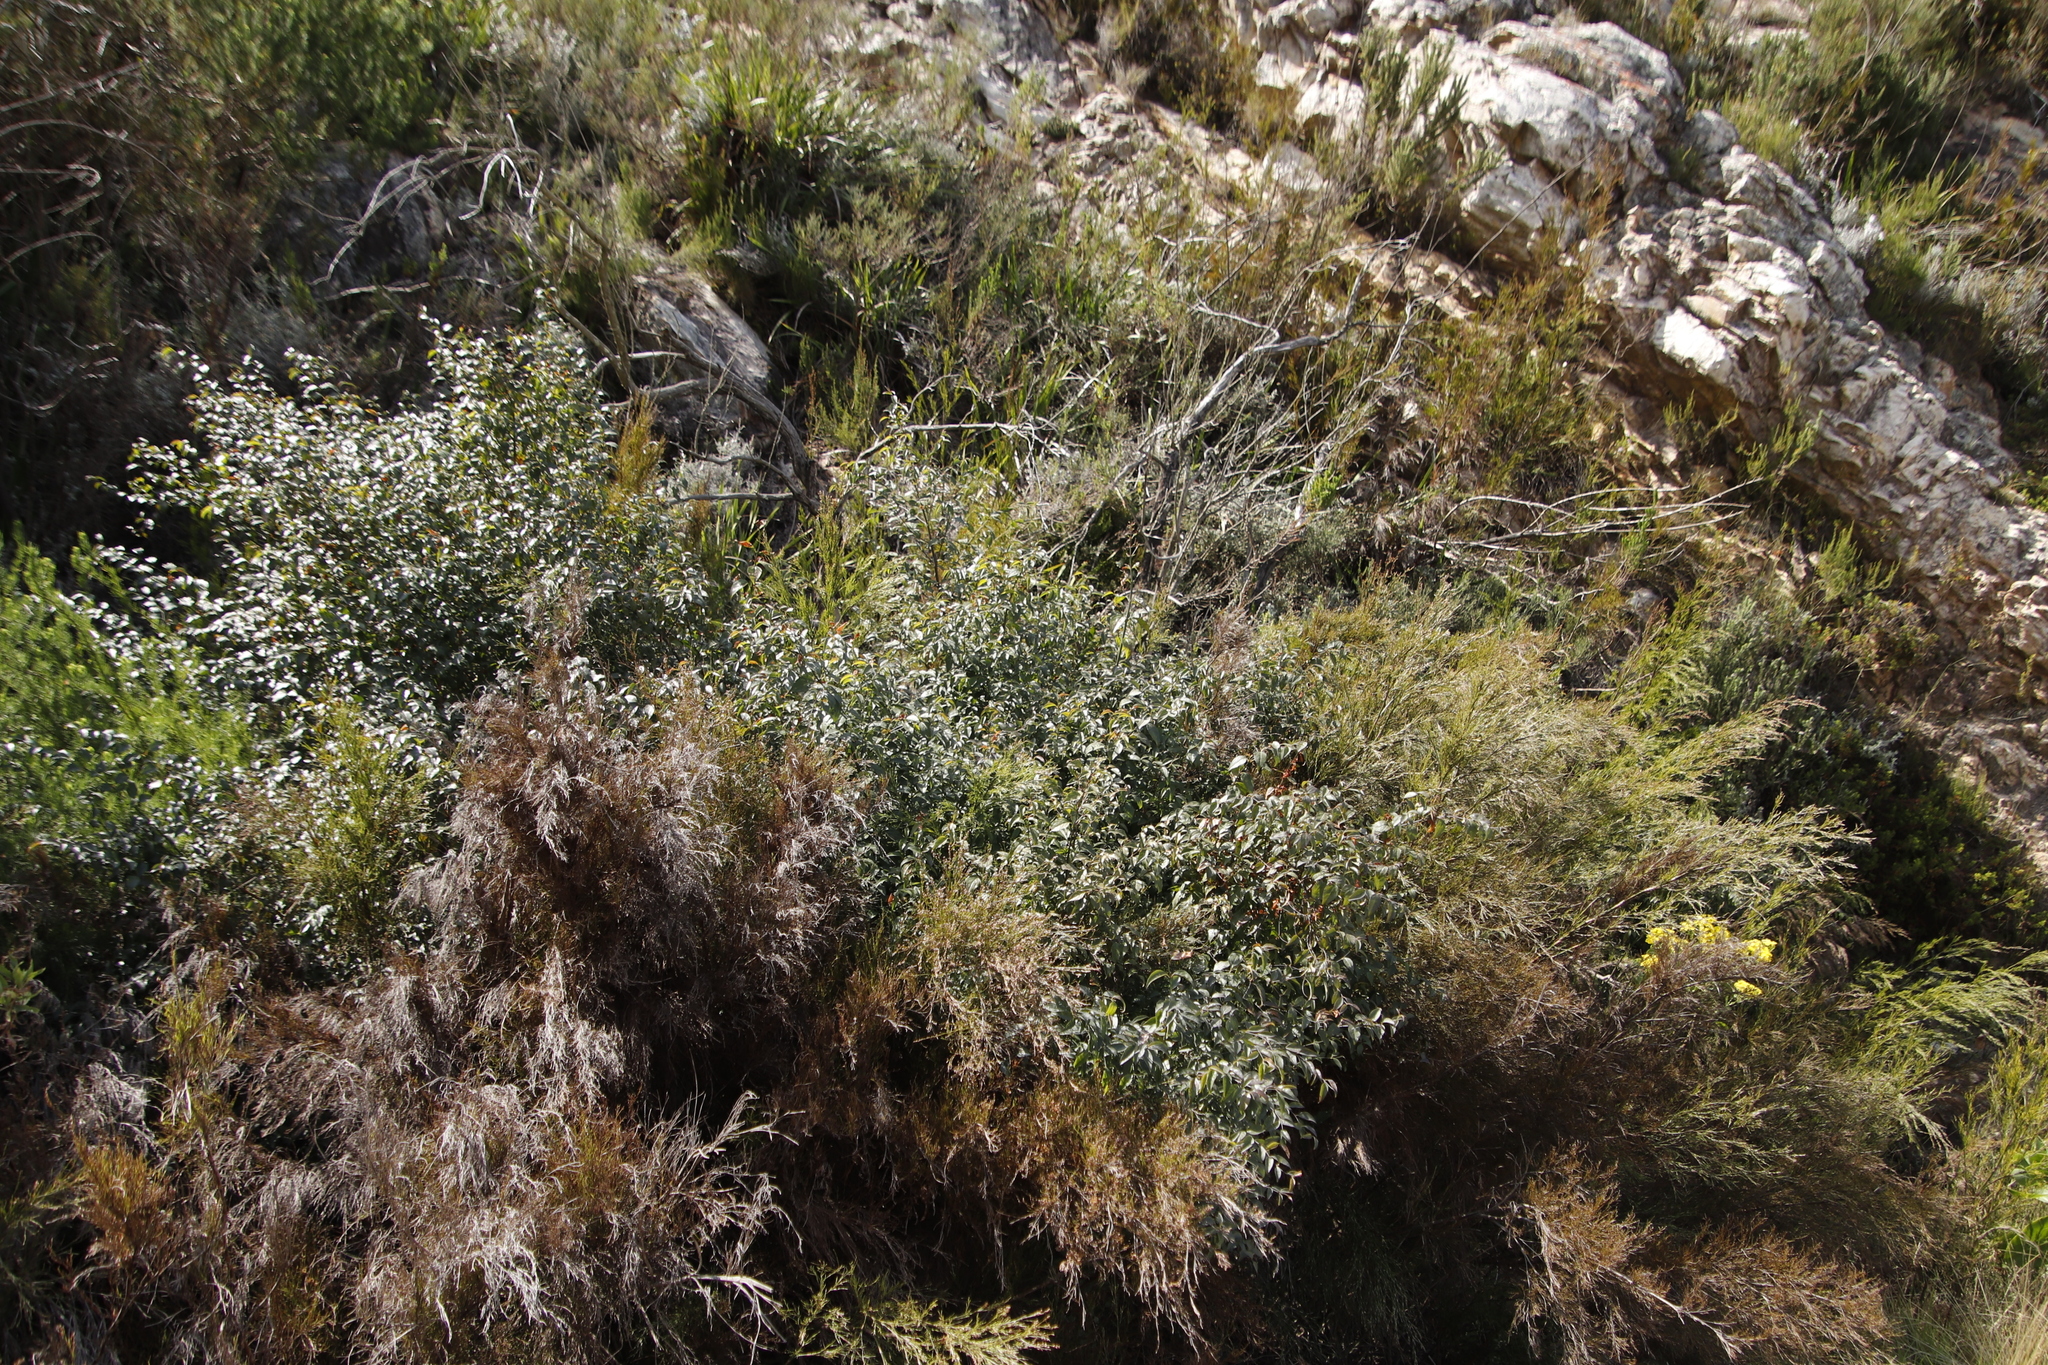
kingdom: Plantae
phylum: Tracheophyta
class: Magnoliopsida
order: Lamiales
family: Stilbaceae
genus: Halleria
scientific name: Halleria lucida
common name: Tree fuschia
